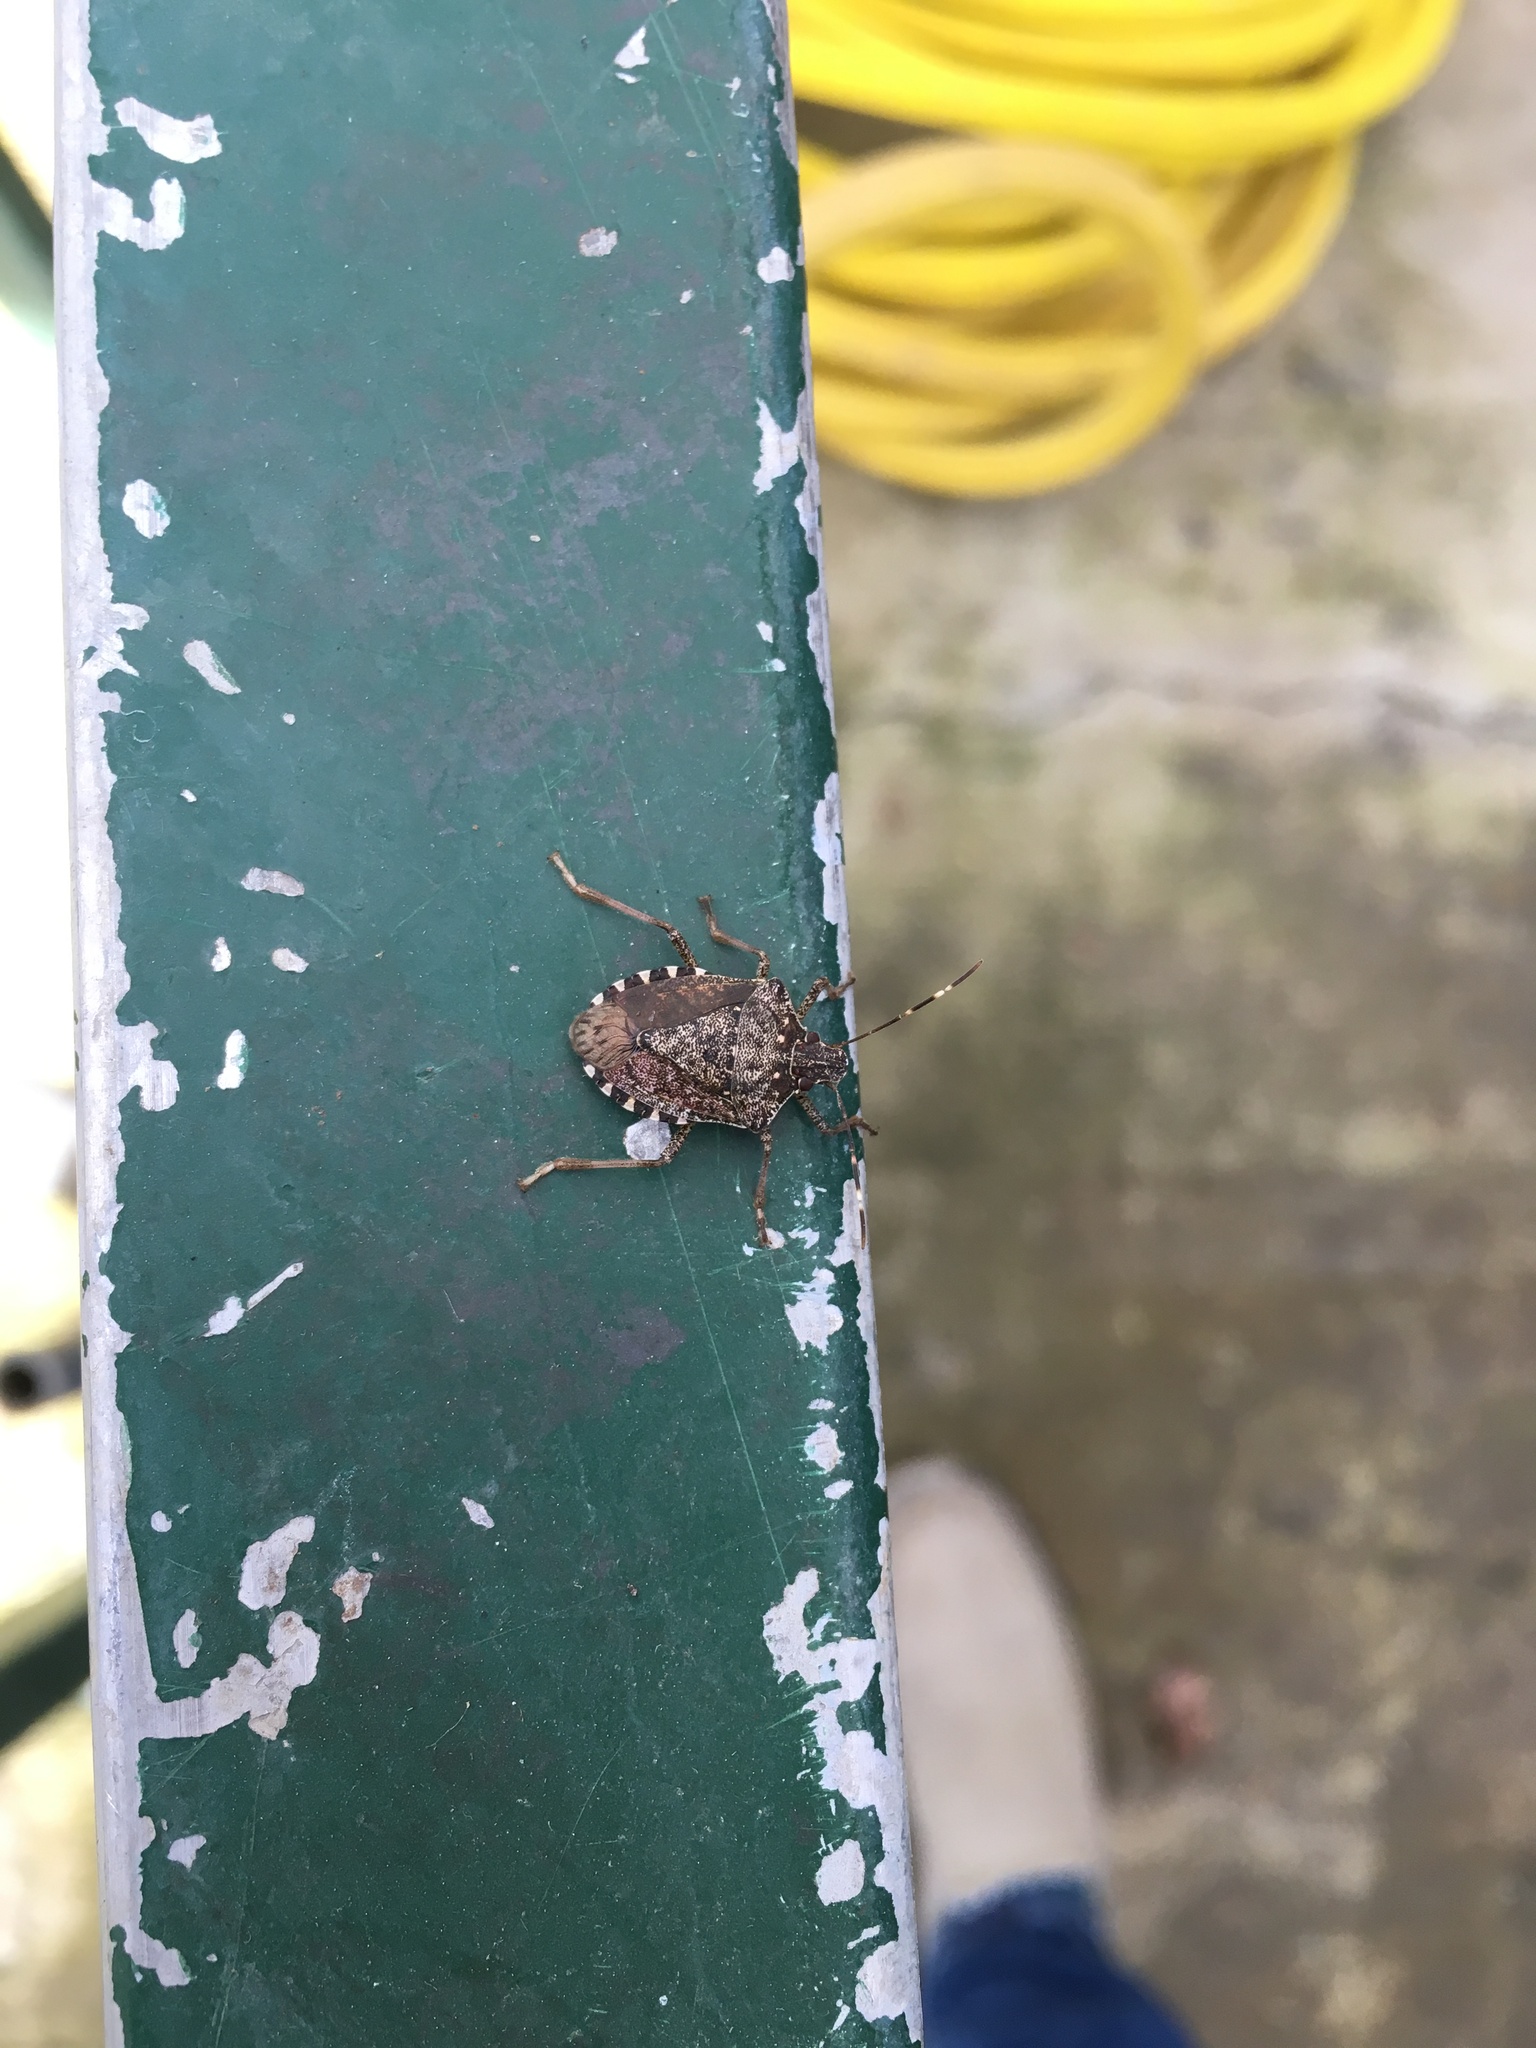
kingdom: Animalia
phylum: Arthropoda
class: Insecta
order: Hemiptera
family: Pentatomidae
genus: Halyomorpha
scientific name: Halyomorpha halys
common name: Brown marmorated stink bug
